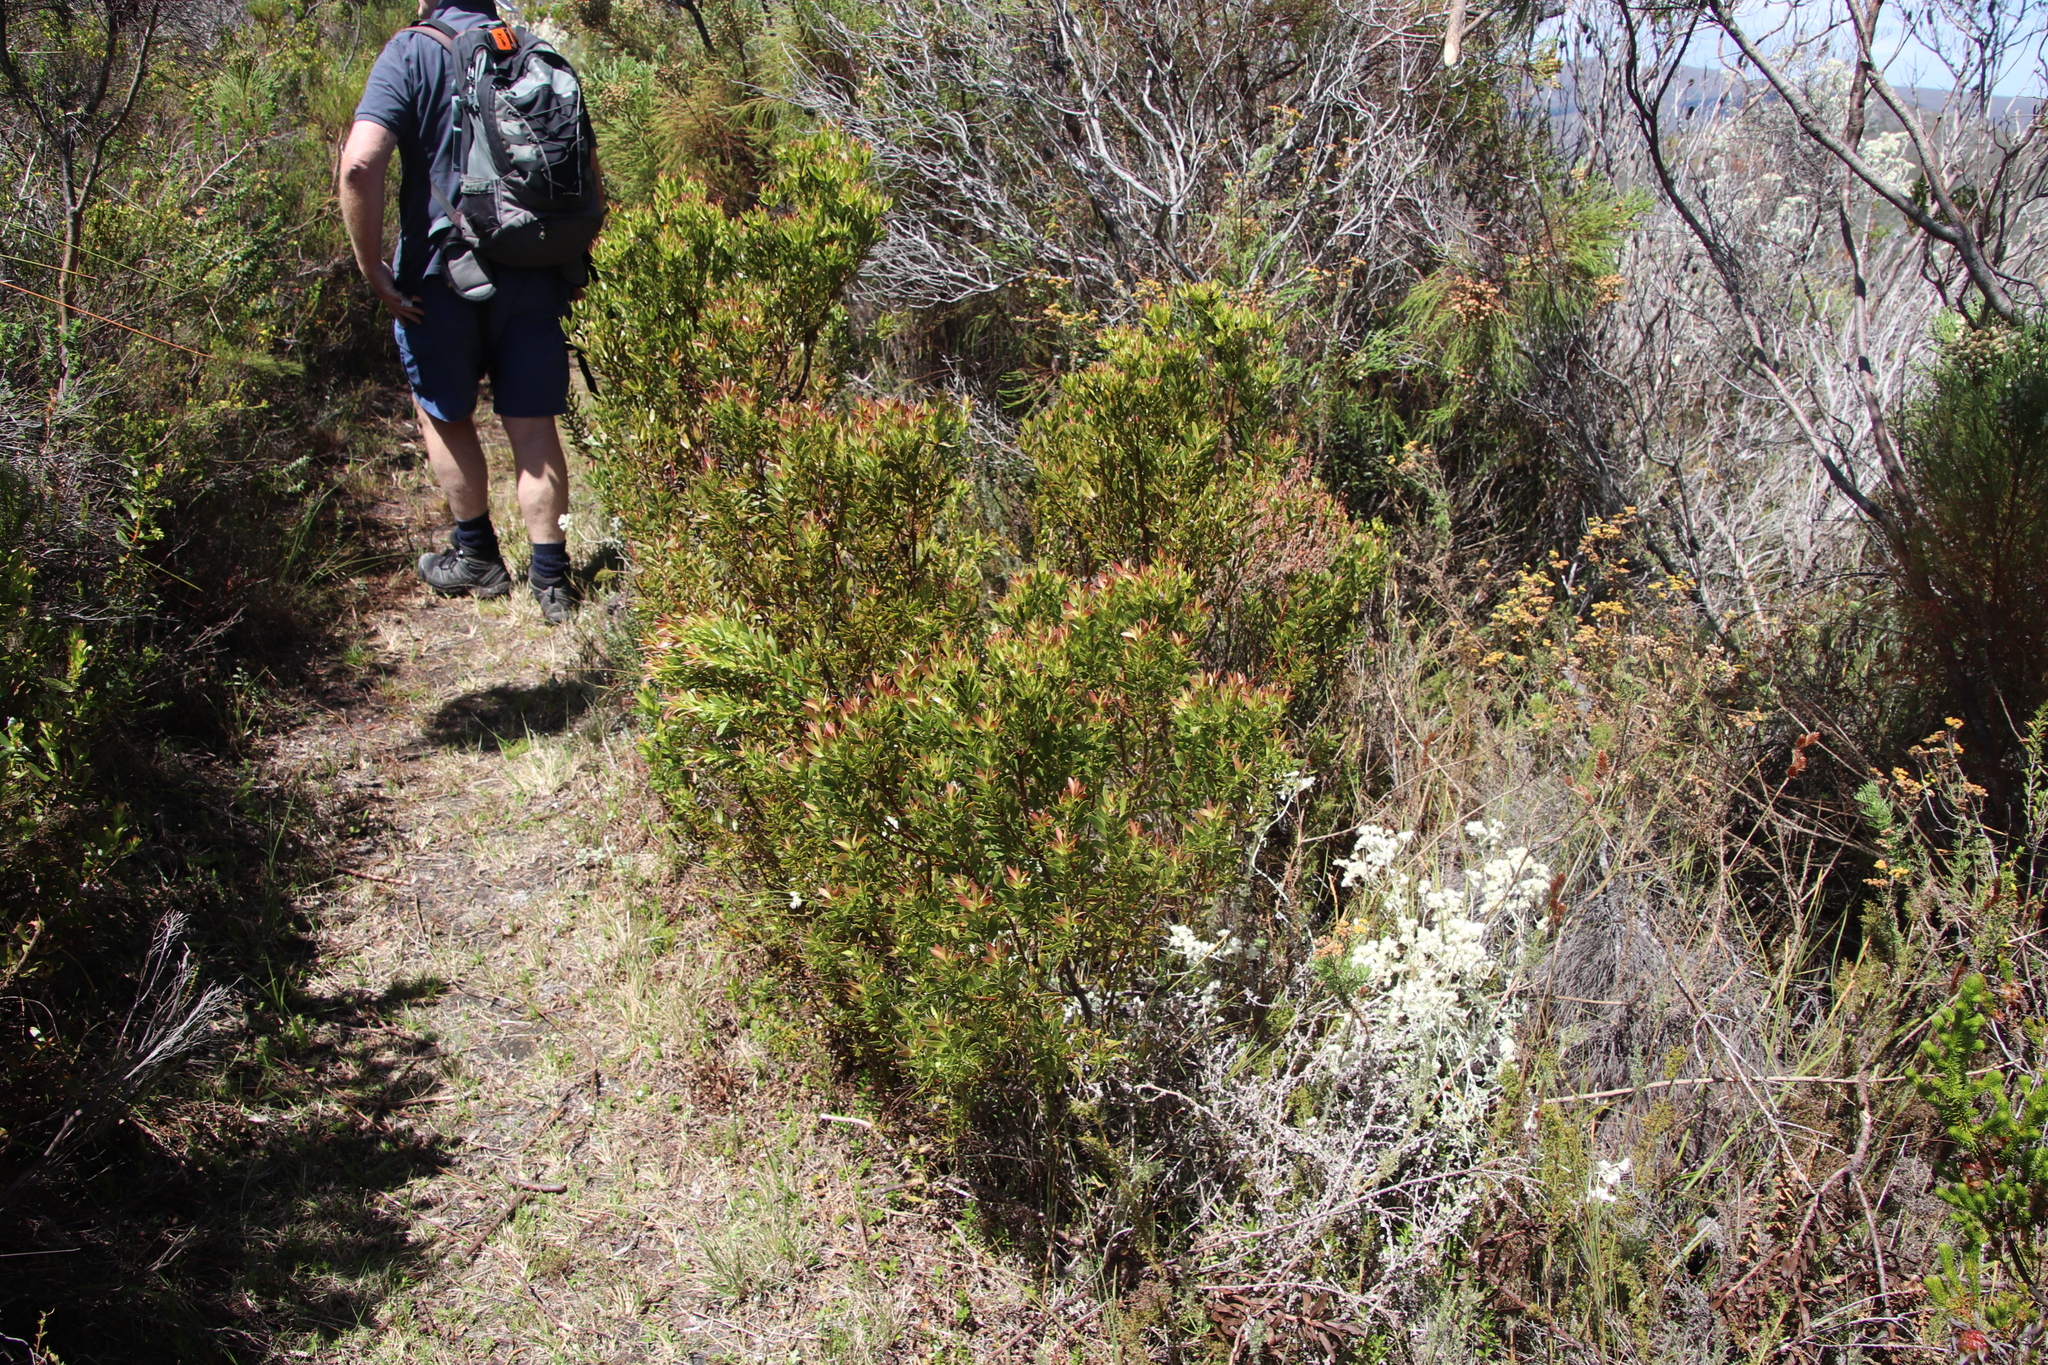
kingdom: Plantae
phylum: Tracheophyta
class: Magnoliopsida
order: Proteales
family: Proteaceae
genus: Leucadendron
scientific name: Leucadendron spissifolium
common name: Spear-leaf conebush
